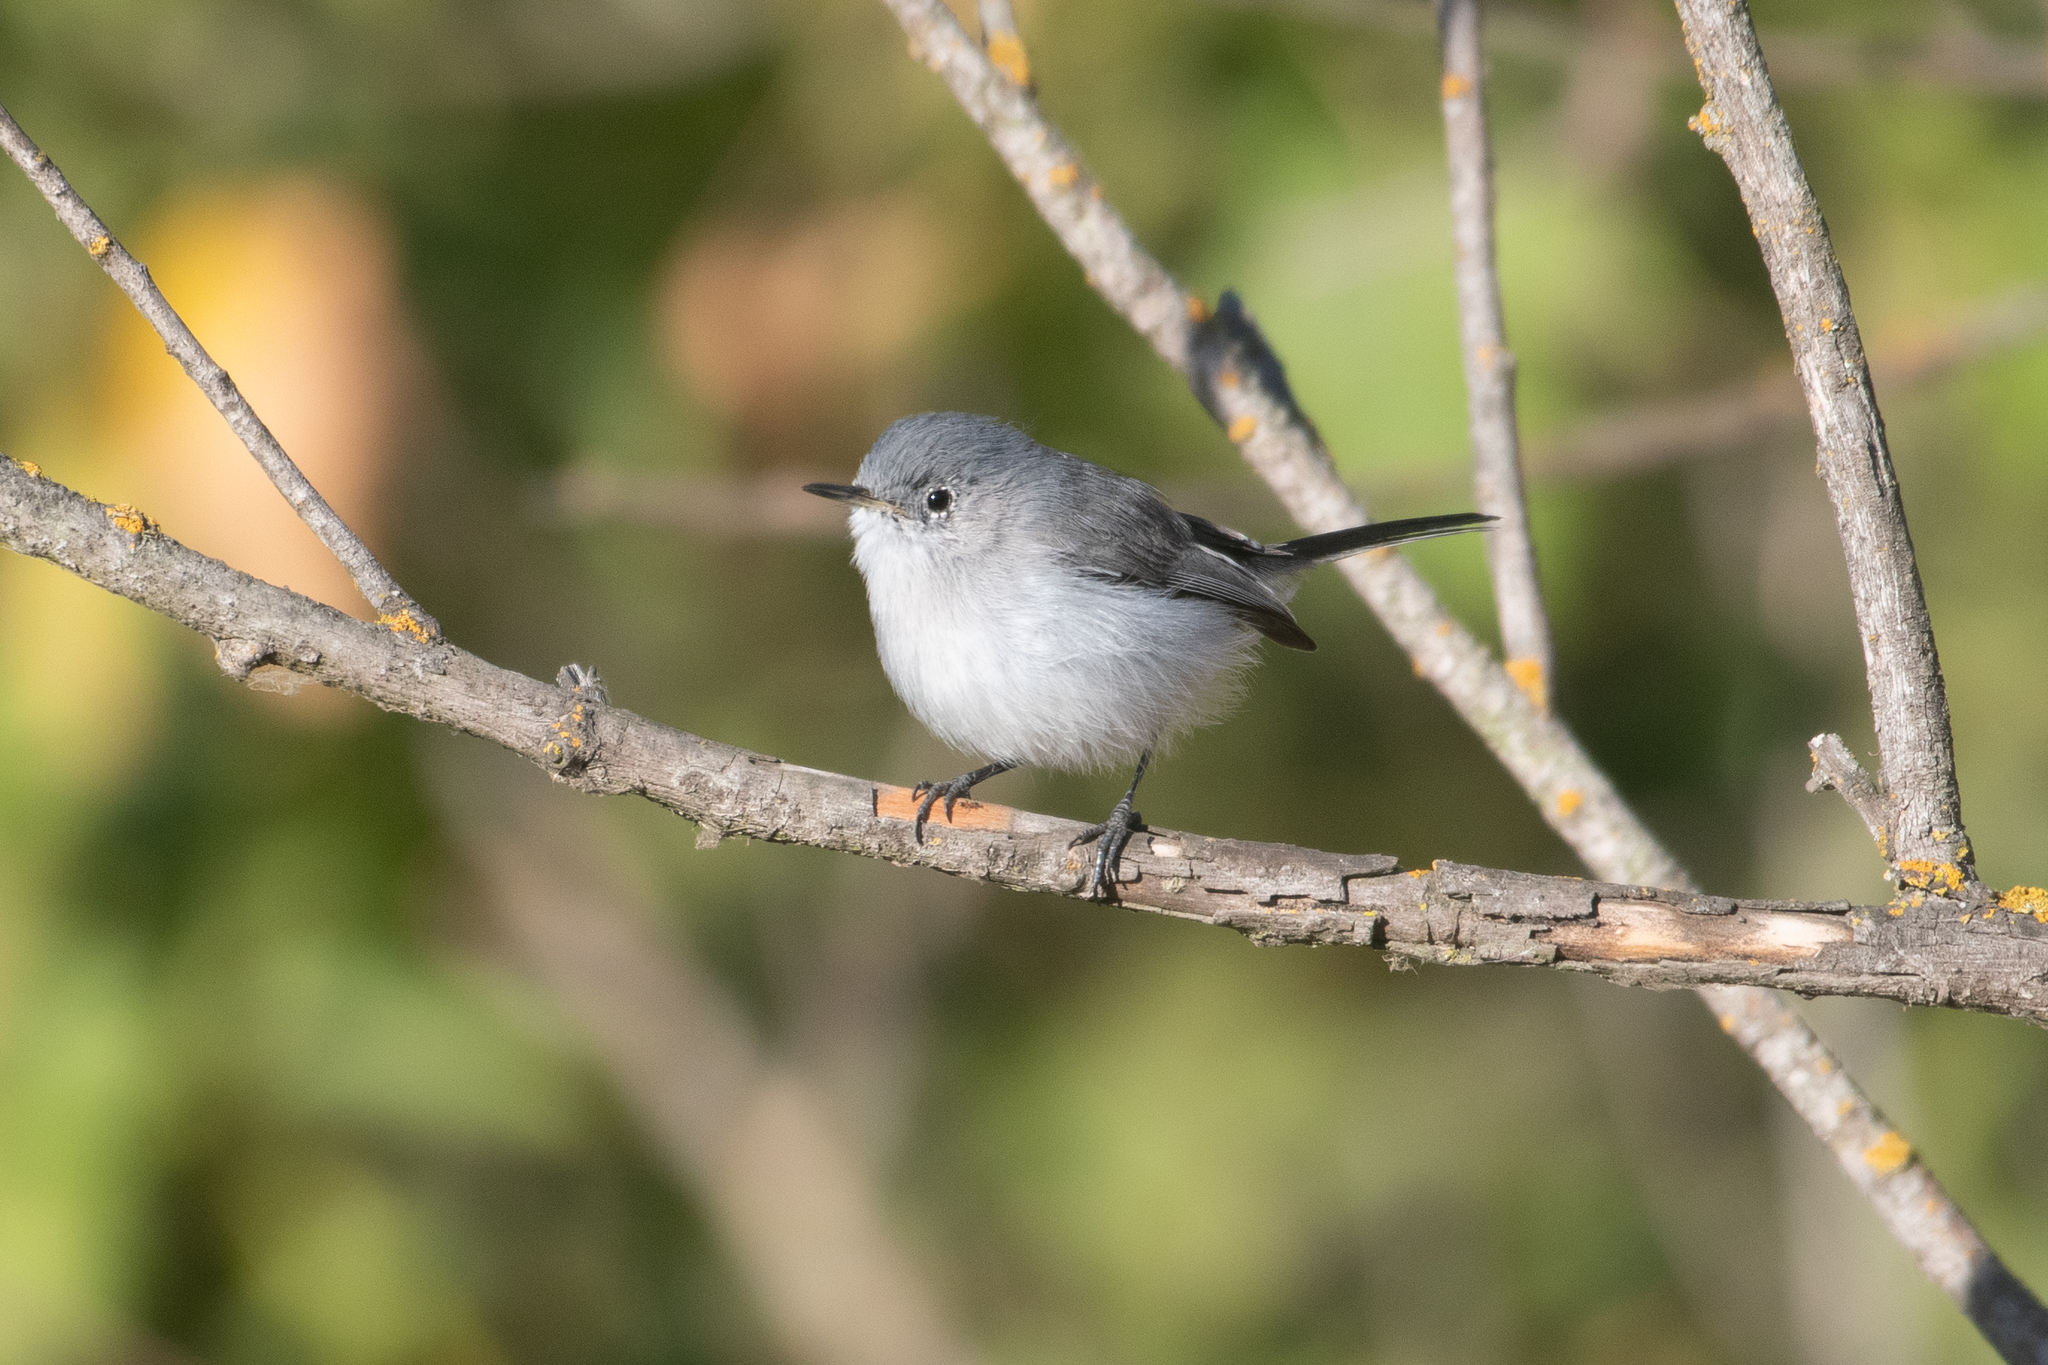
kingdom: Animalia
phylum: Chordata
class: Aves
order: Passeriformes
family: Polioptilidae
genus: Polioptila
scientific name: Polioptila caerulea
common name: Blue-gray gnatcatcher
